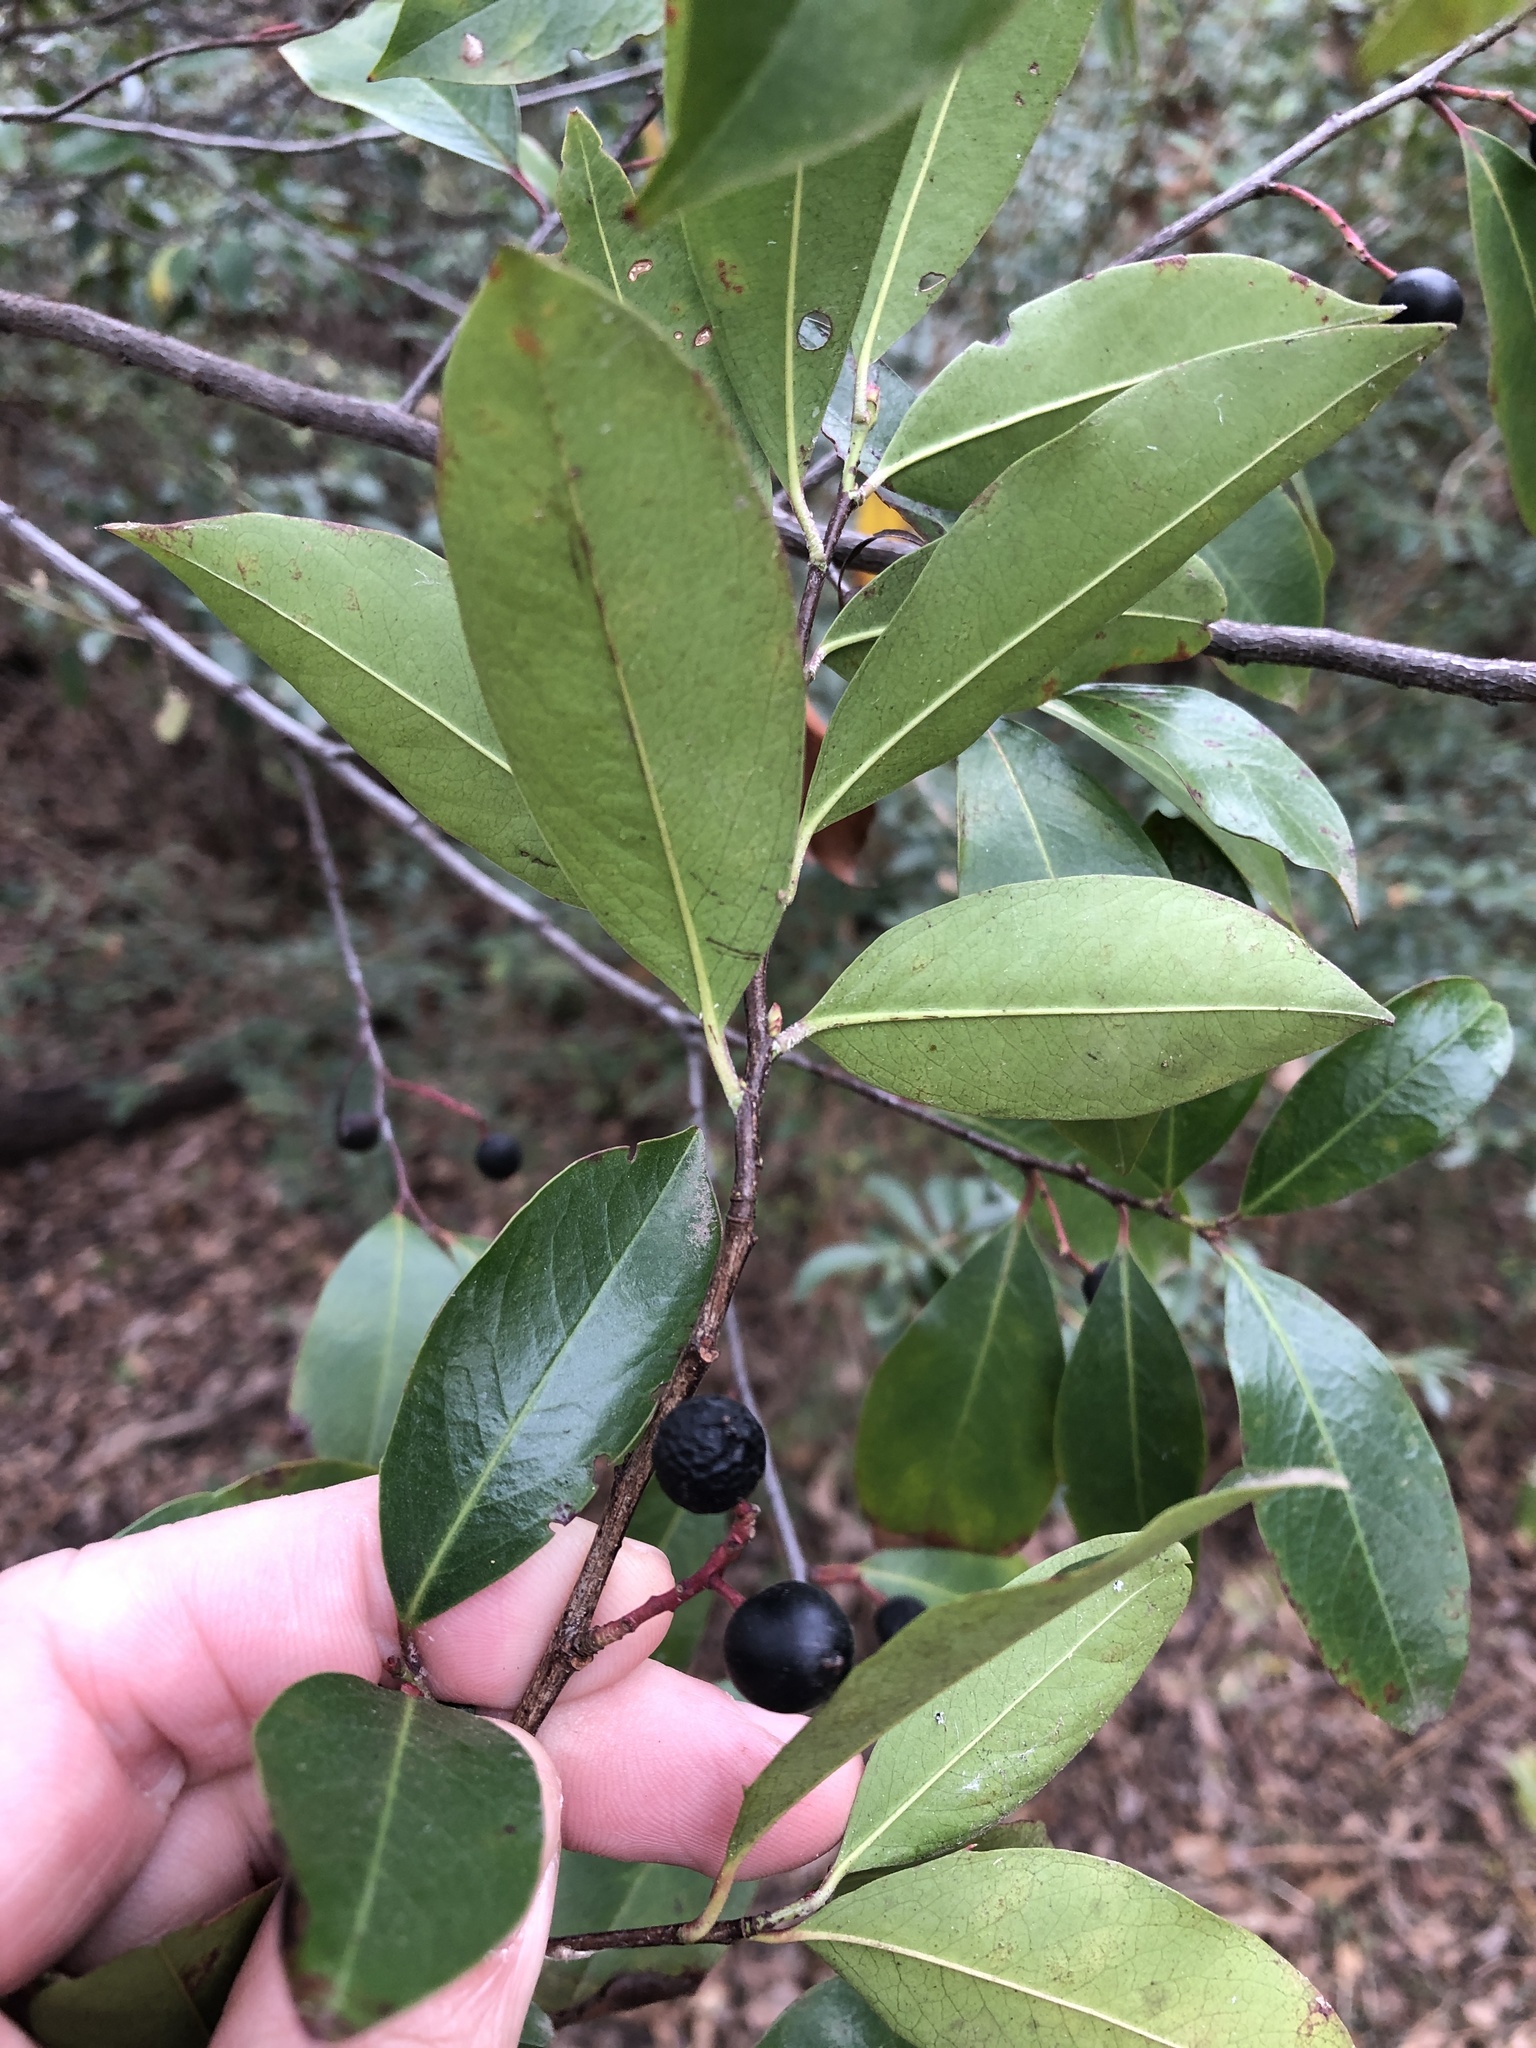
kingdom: Plantae
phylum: Tracheophyta
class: Magnoliopsida
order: Rosales
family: Rosaceae
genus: Prunus
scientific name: Prunus caroliniana
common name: Carolina laurel cherry
